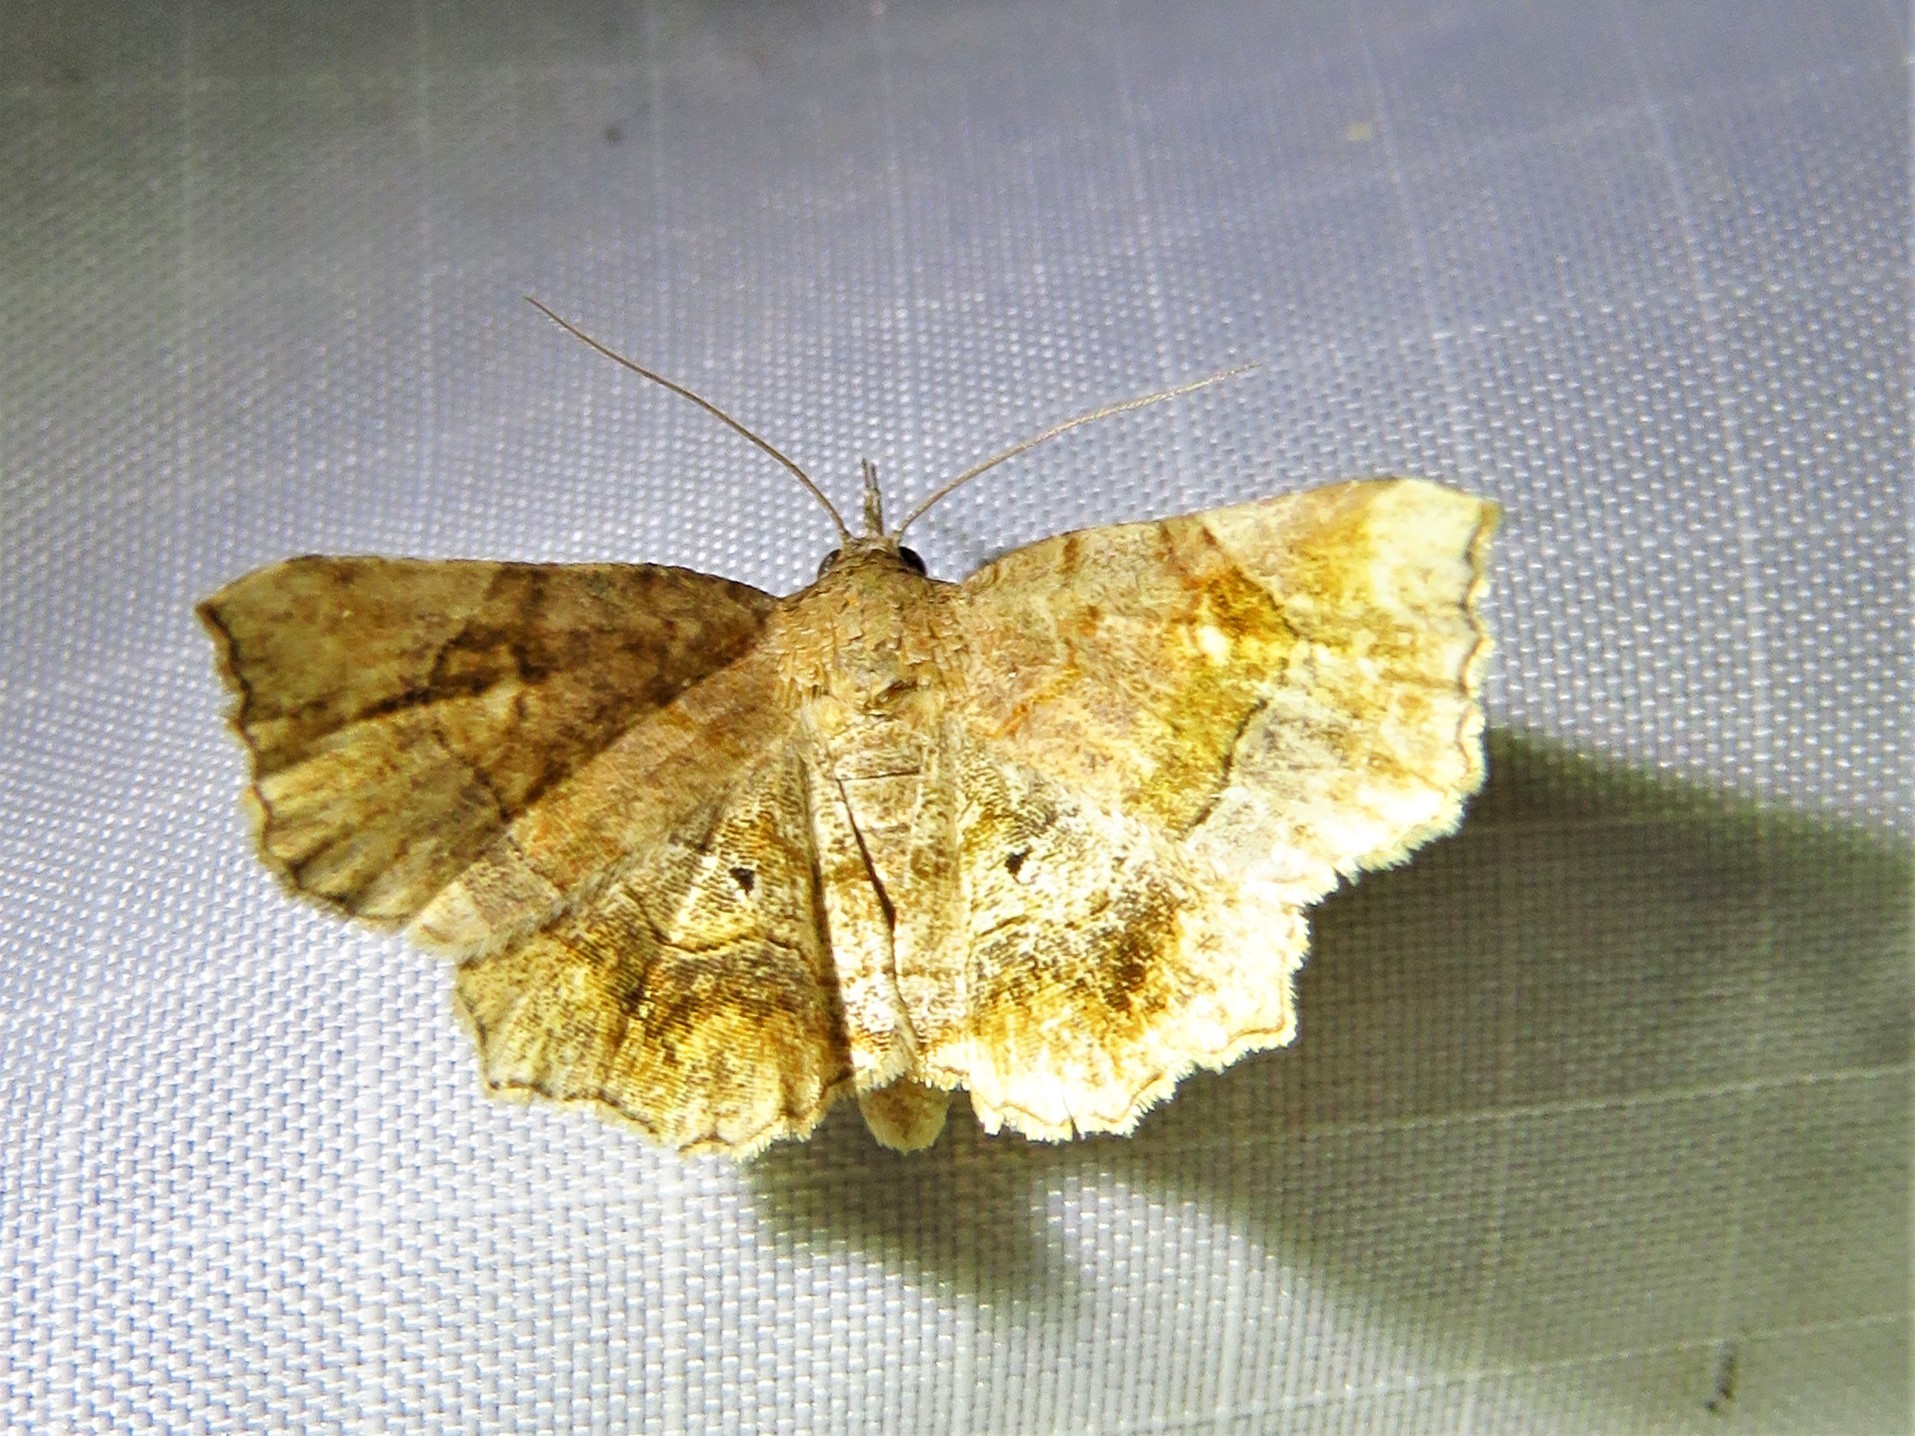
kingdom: Animalia
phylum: Arthropoda
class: Insecta
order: Lepidoptera
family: Erebidae
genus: Pangrapta
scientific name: Pangrapta decoralis
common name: Decorated owlet
